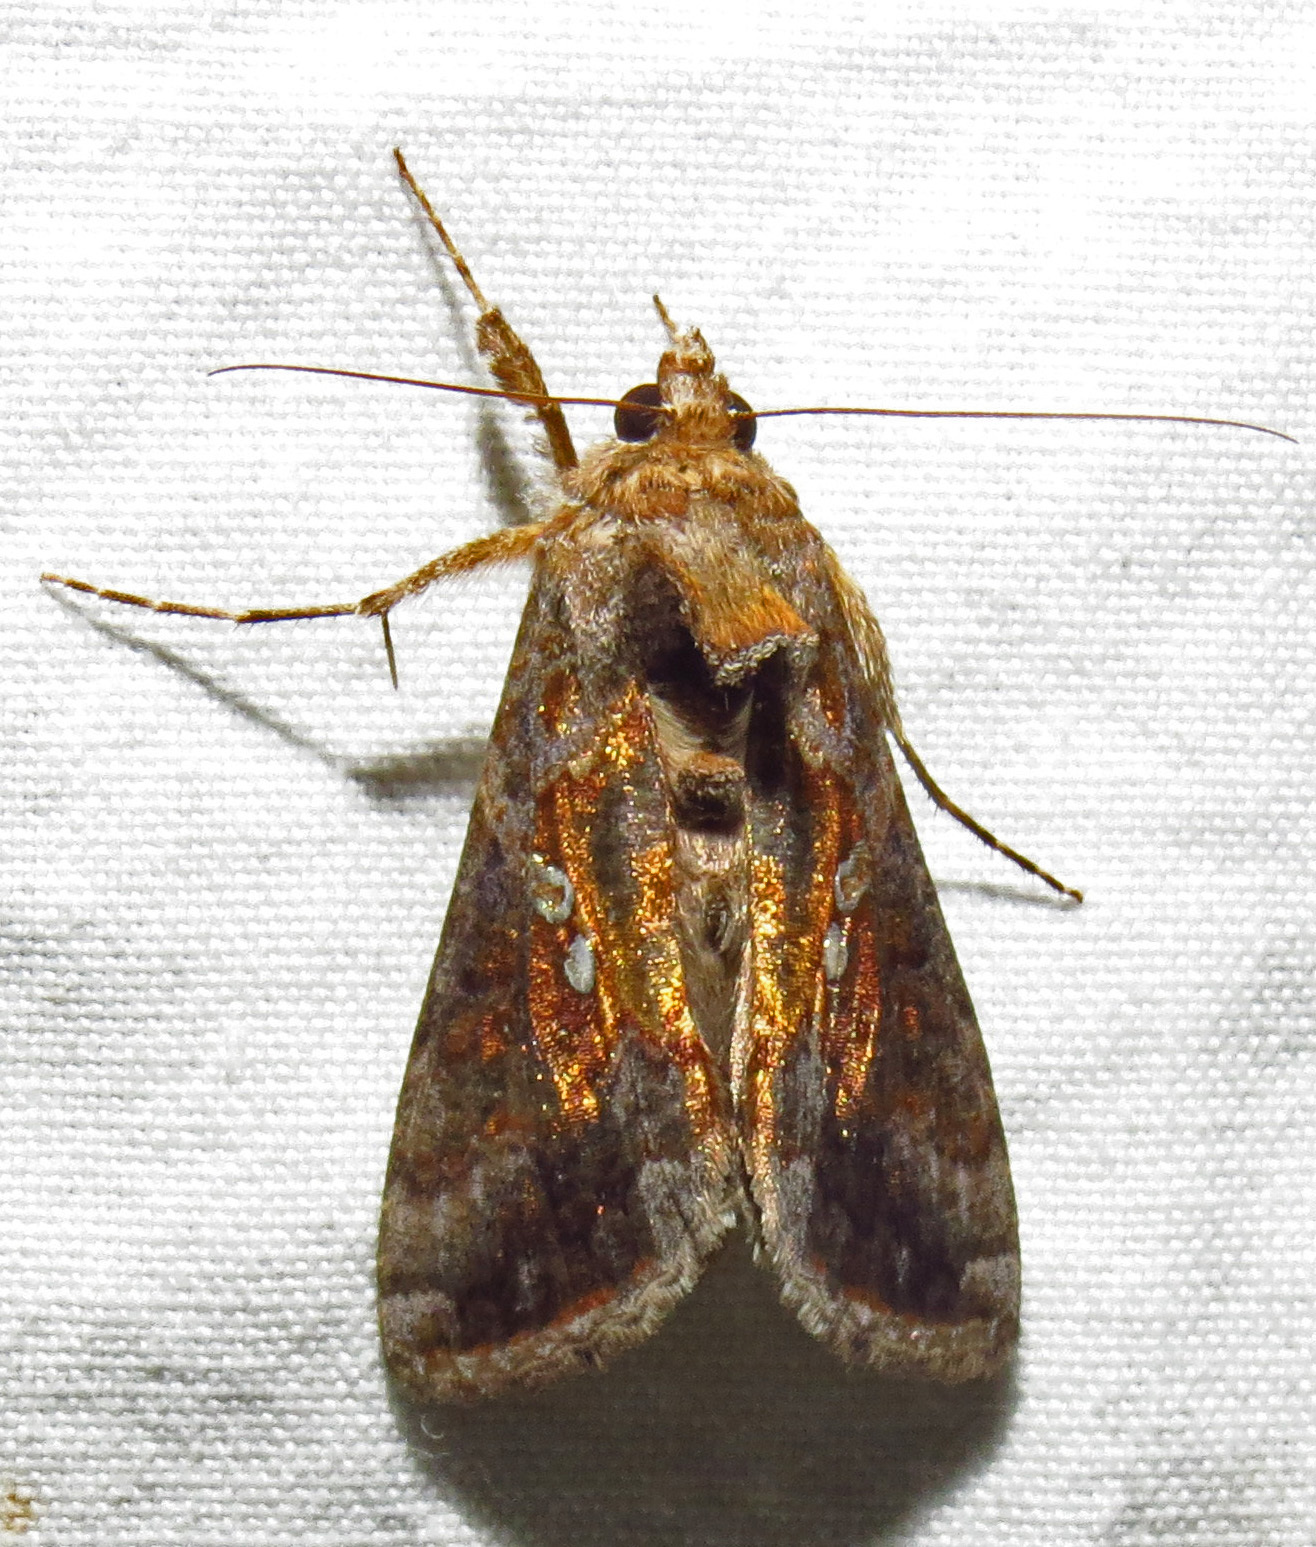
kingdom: Animalia
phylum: Arthropoda
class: Insecta
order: Lepidoptera
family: Noctuidae
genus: Chrysodeixis
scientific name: Chrysodeixis includens
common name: Cutworm moth
